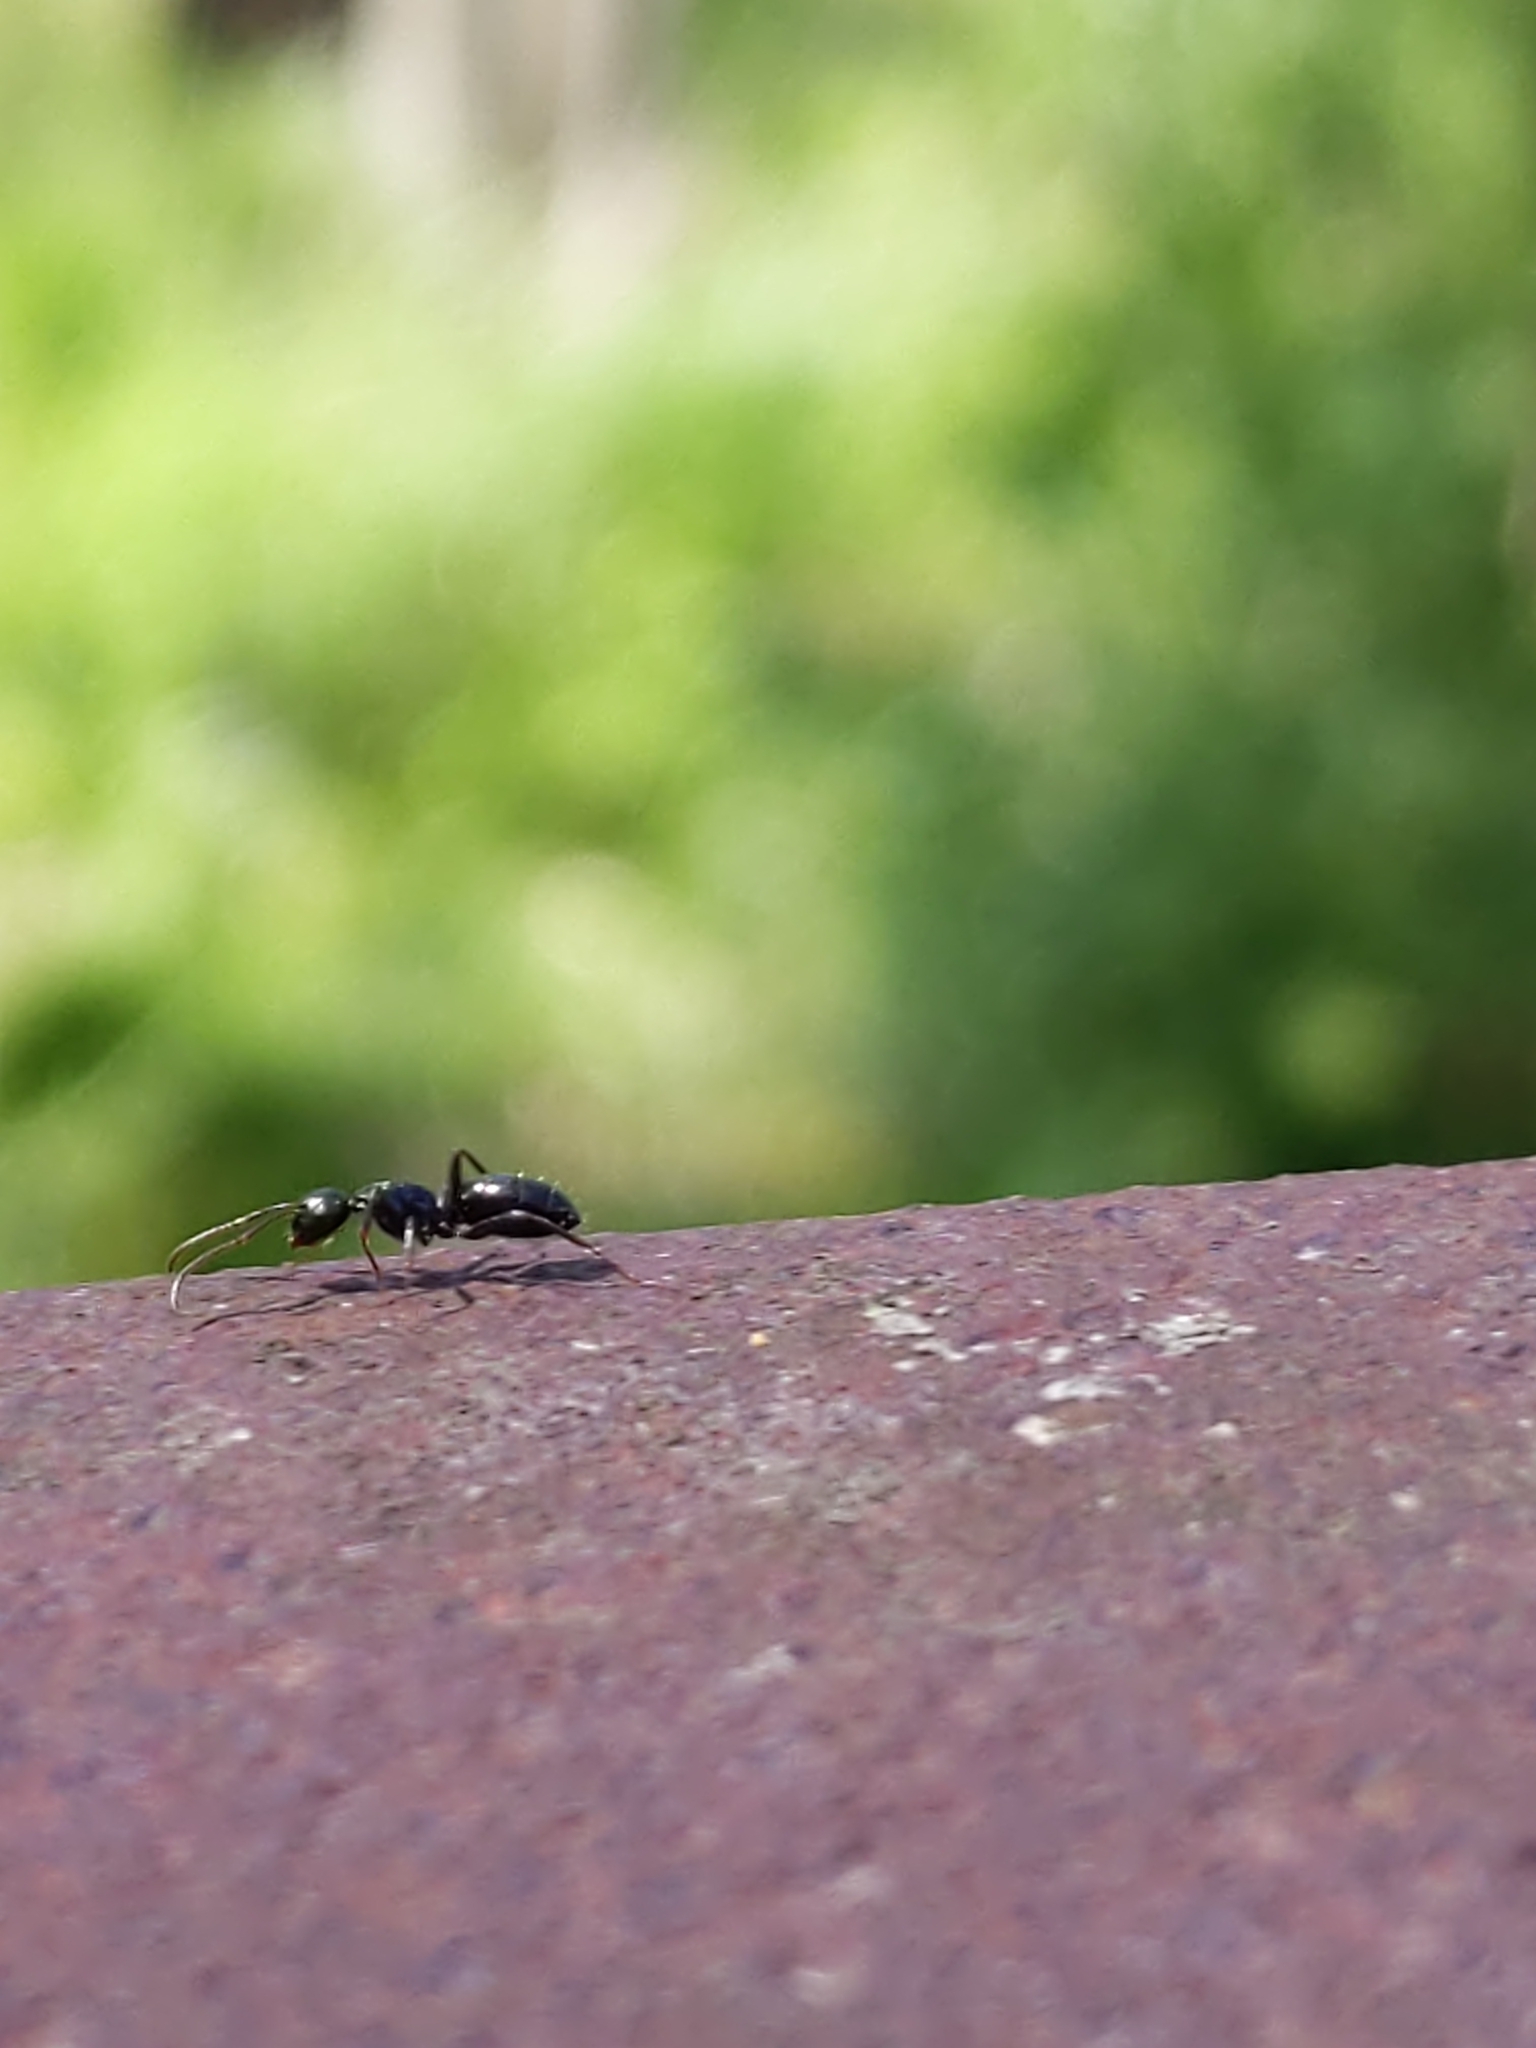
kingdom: Animalia
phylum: Arthropoda
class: Insecta
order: Hymenoptera
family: Formicidae
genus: Camponotus
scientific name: Camponotus
